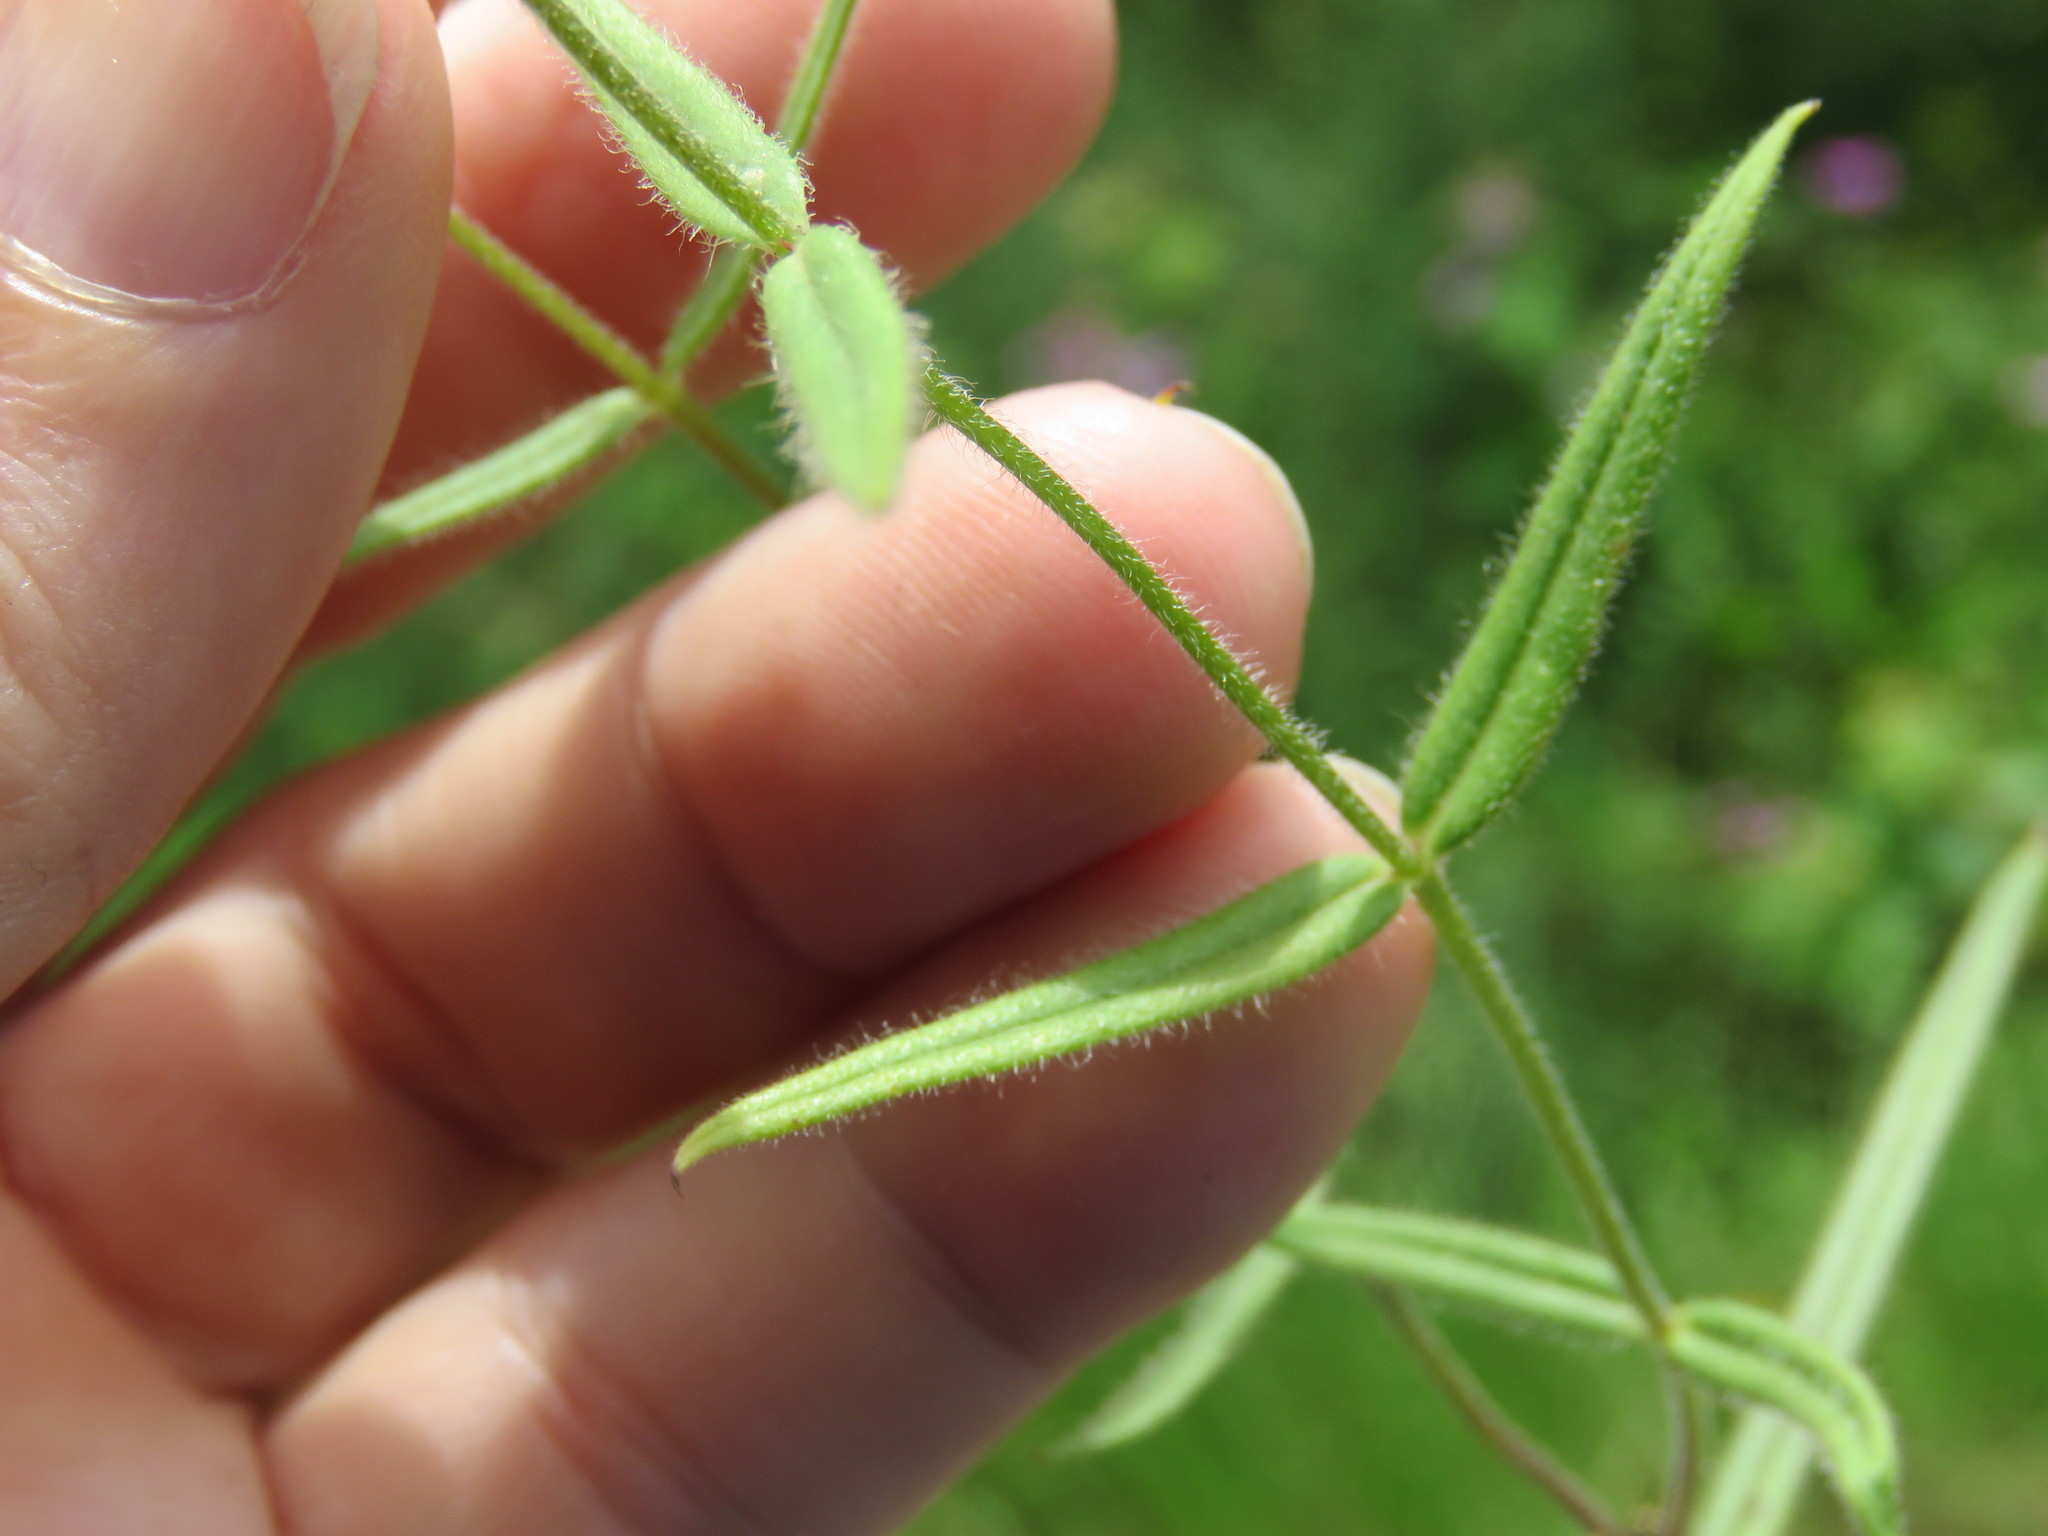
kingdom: Plantae
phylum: Tracheophyta
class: Magnoliopsida
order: Ericales
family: Polemoniaceae
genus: Phlox
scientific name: Phlox pilosa
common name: Prairie phlox
